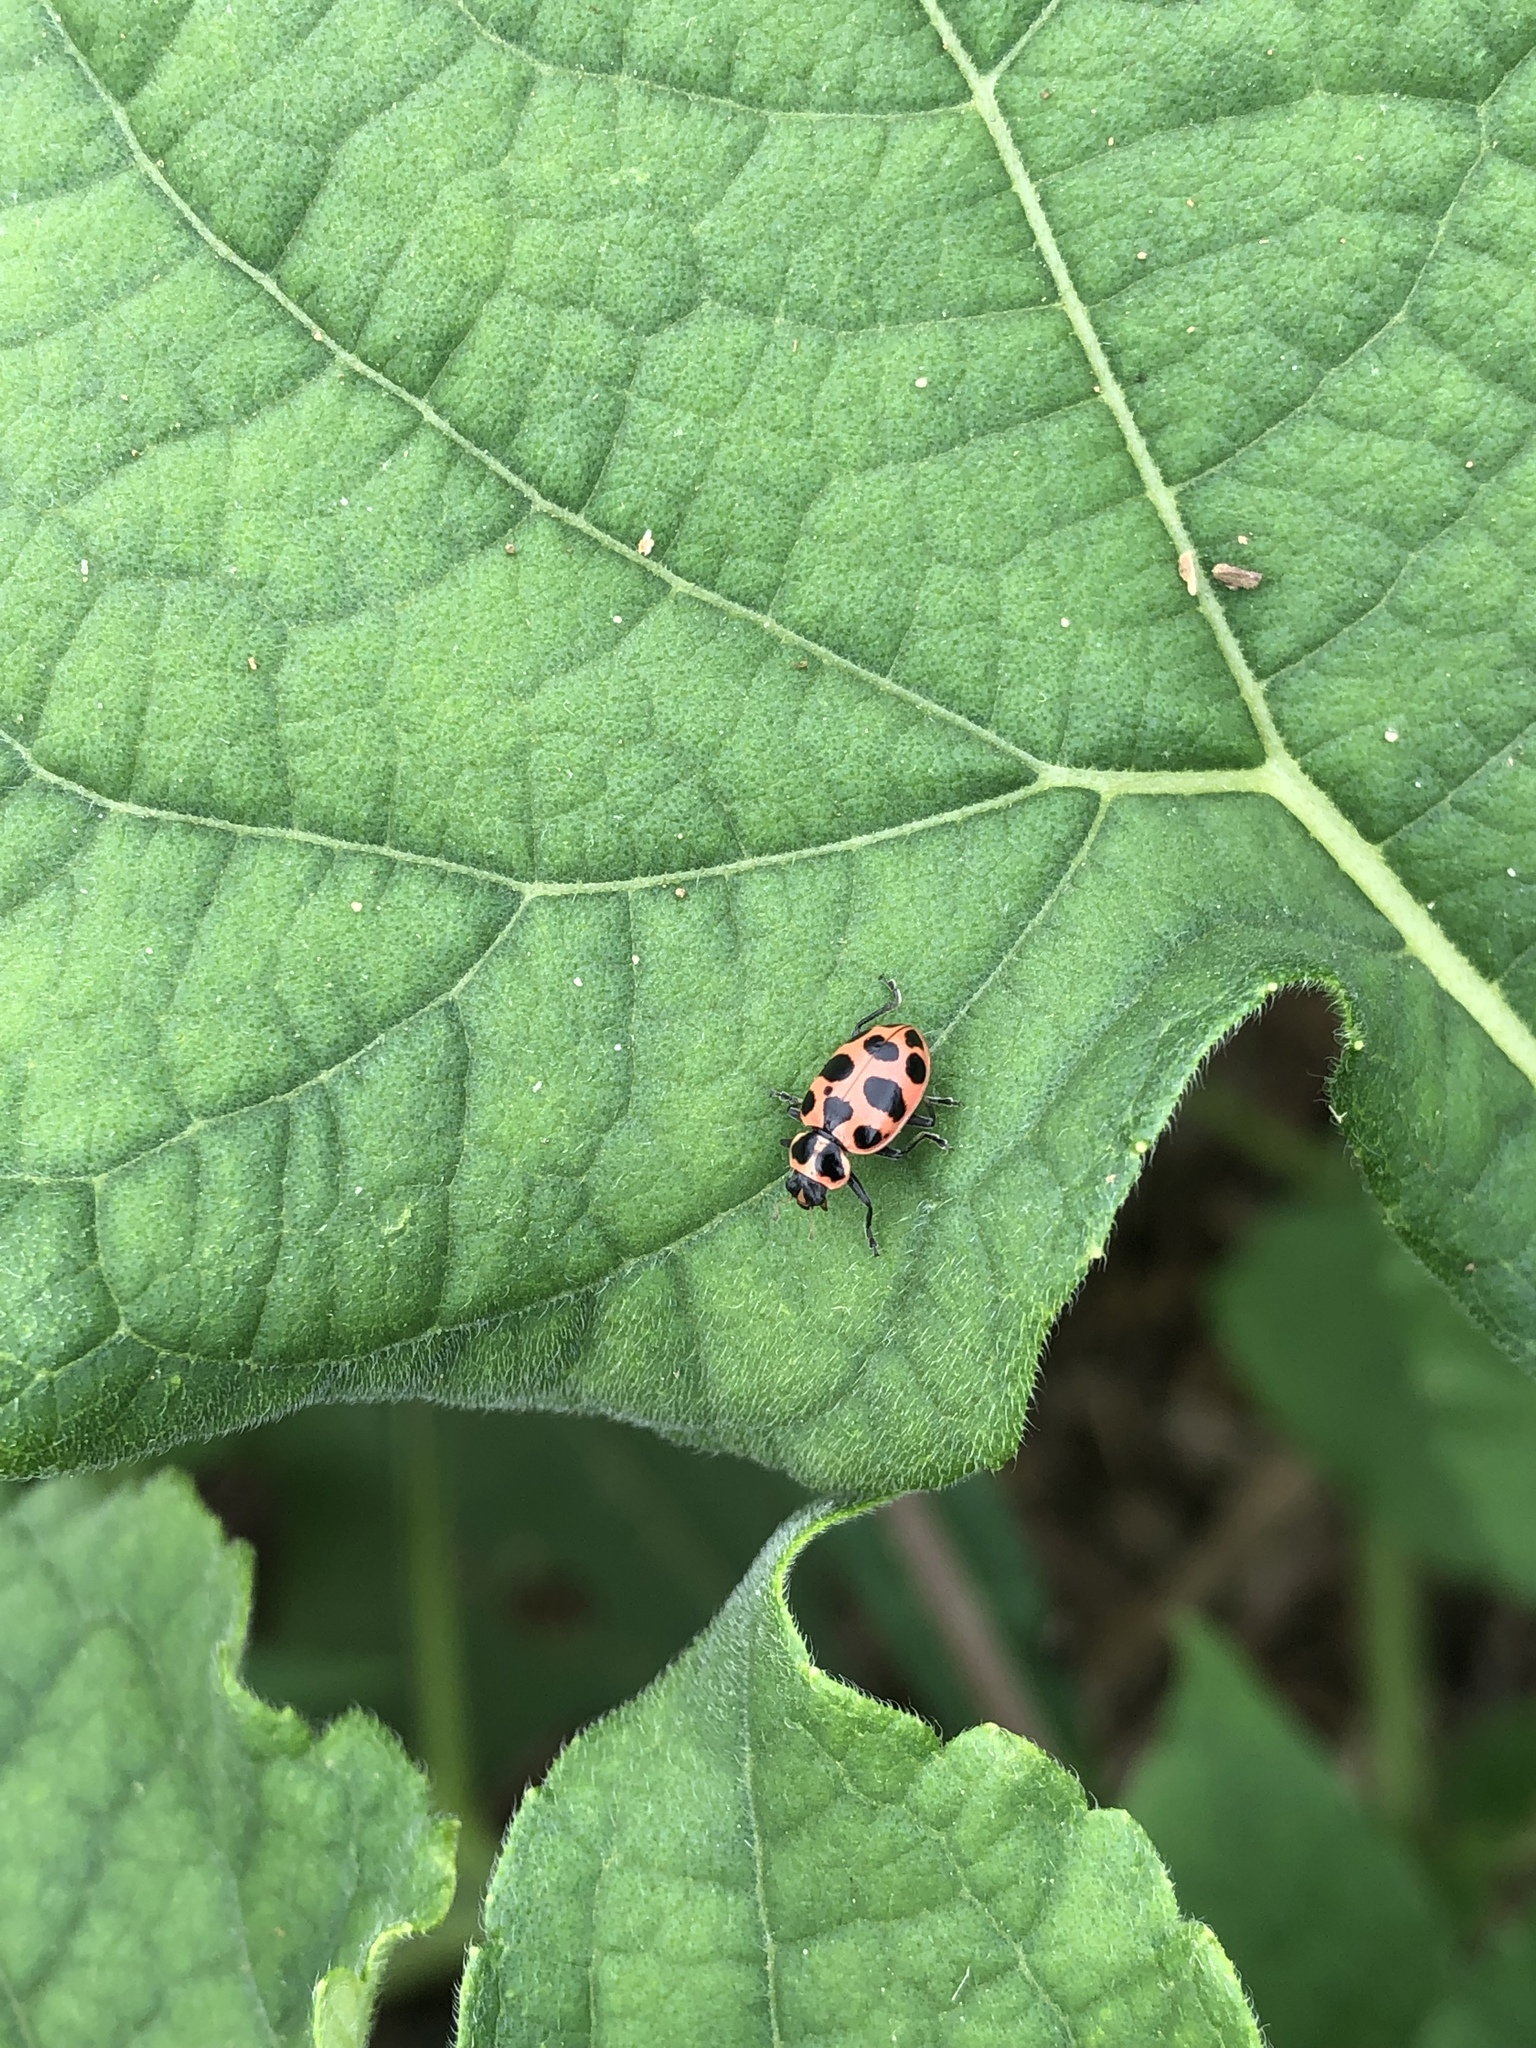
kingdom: Animalia
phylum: Arthropoda
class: Insecta
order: Coleoptera
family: Coccinellidae
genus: Coleomegilla
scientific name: Coleomegilla maculata
